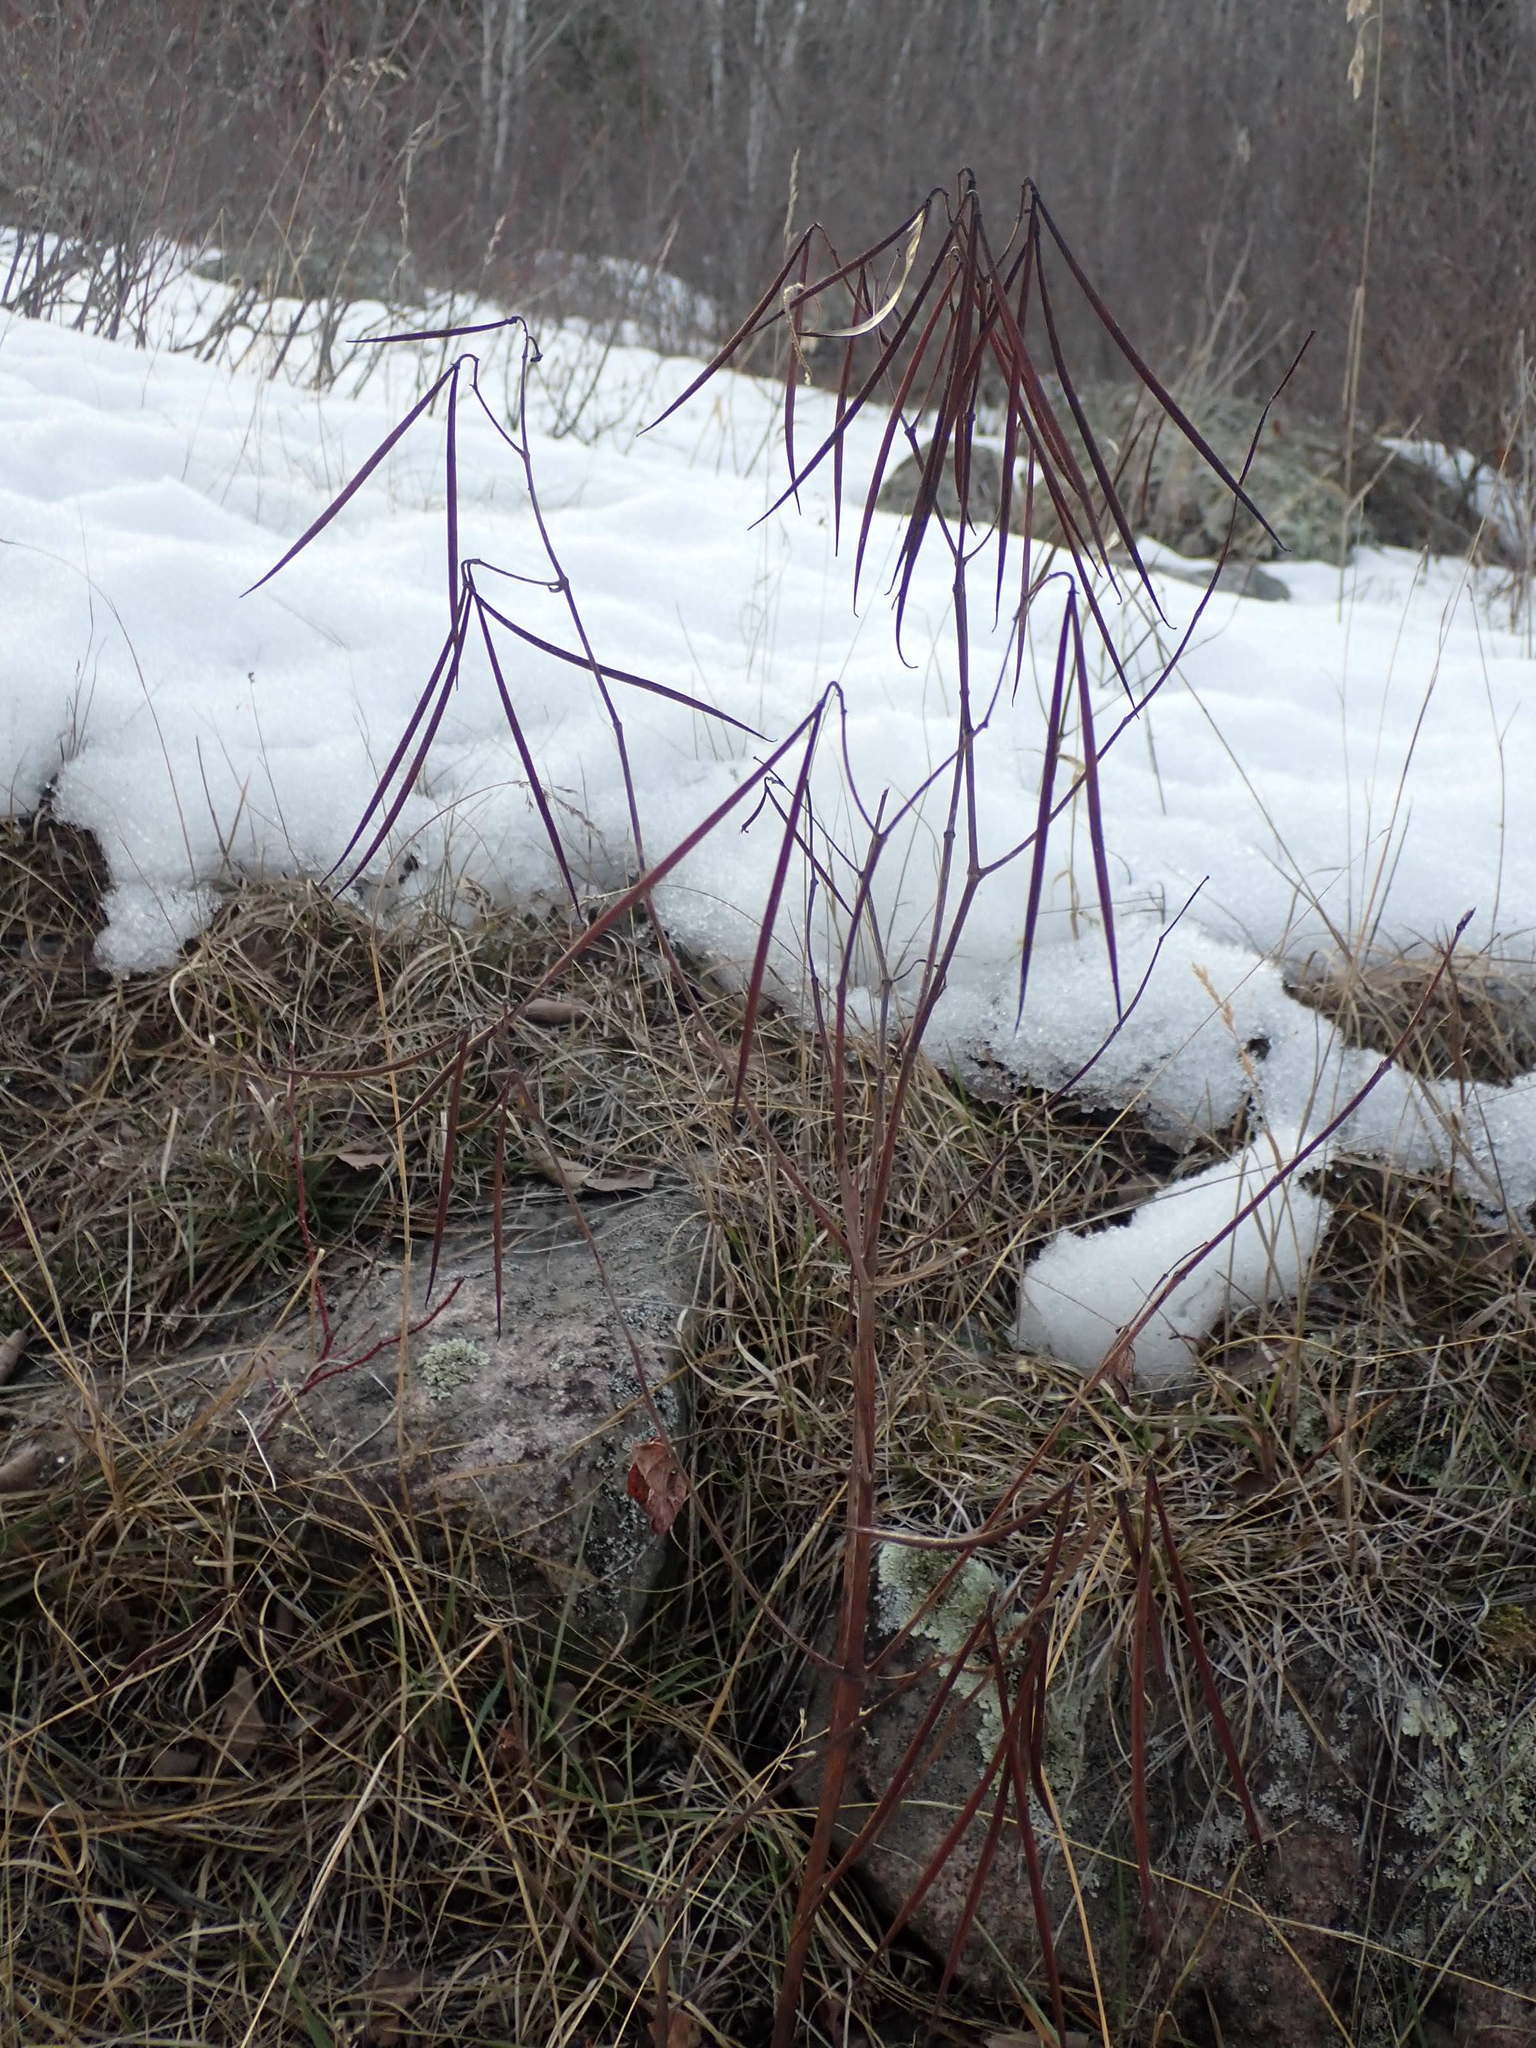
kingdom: Plantae
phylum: Tracheophyta
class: Magnoliopsida
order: Gentianales
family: Apocynaceae
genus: Apocynum
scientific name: Apocynum cannabinum
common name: Hemp dogbane
